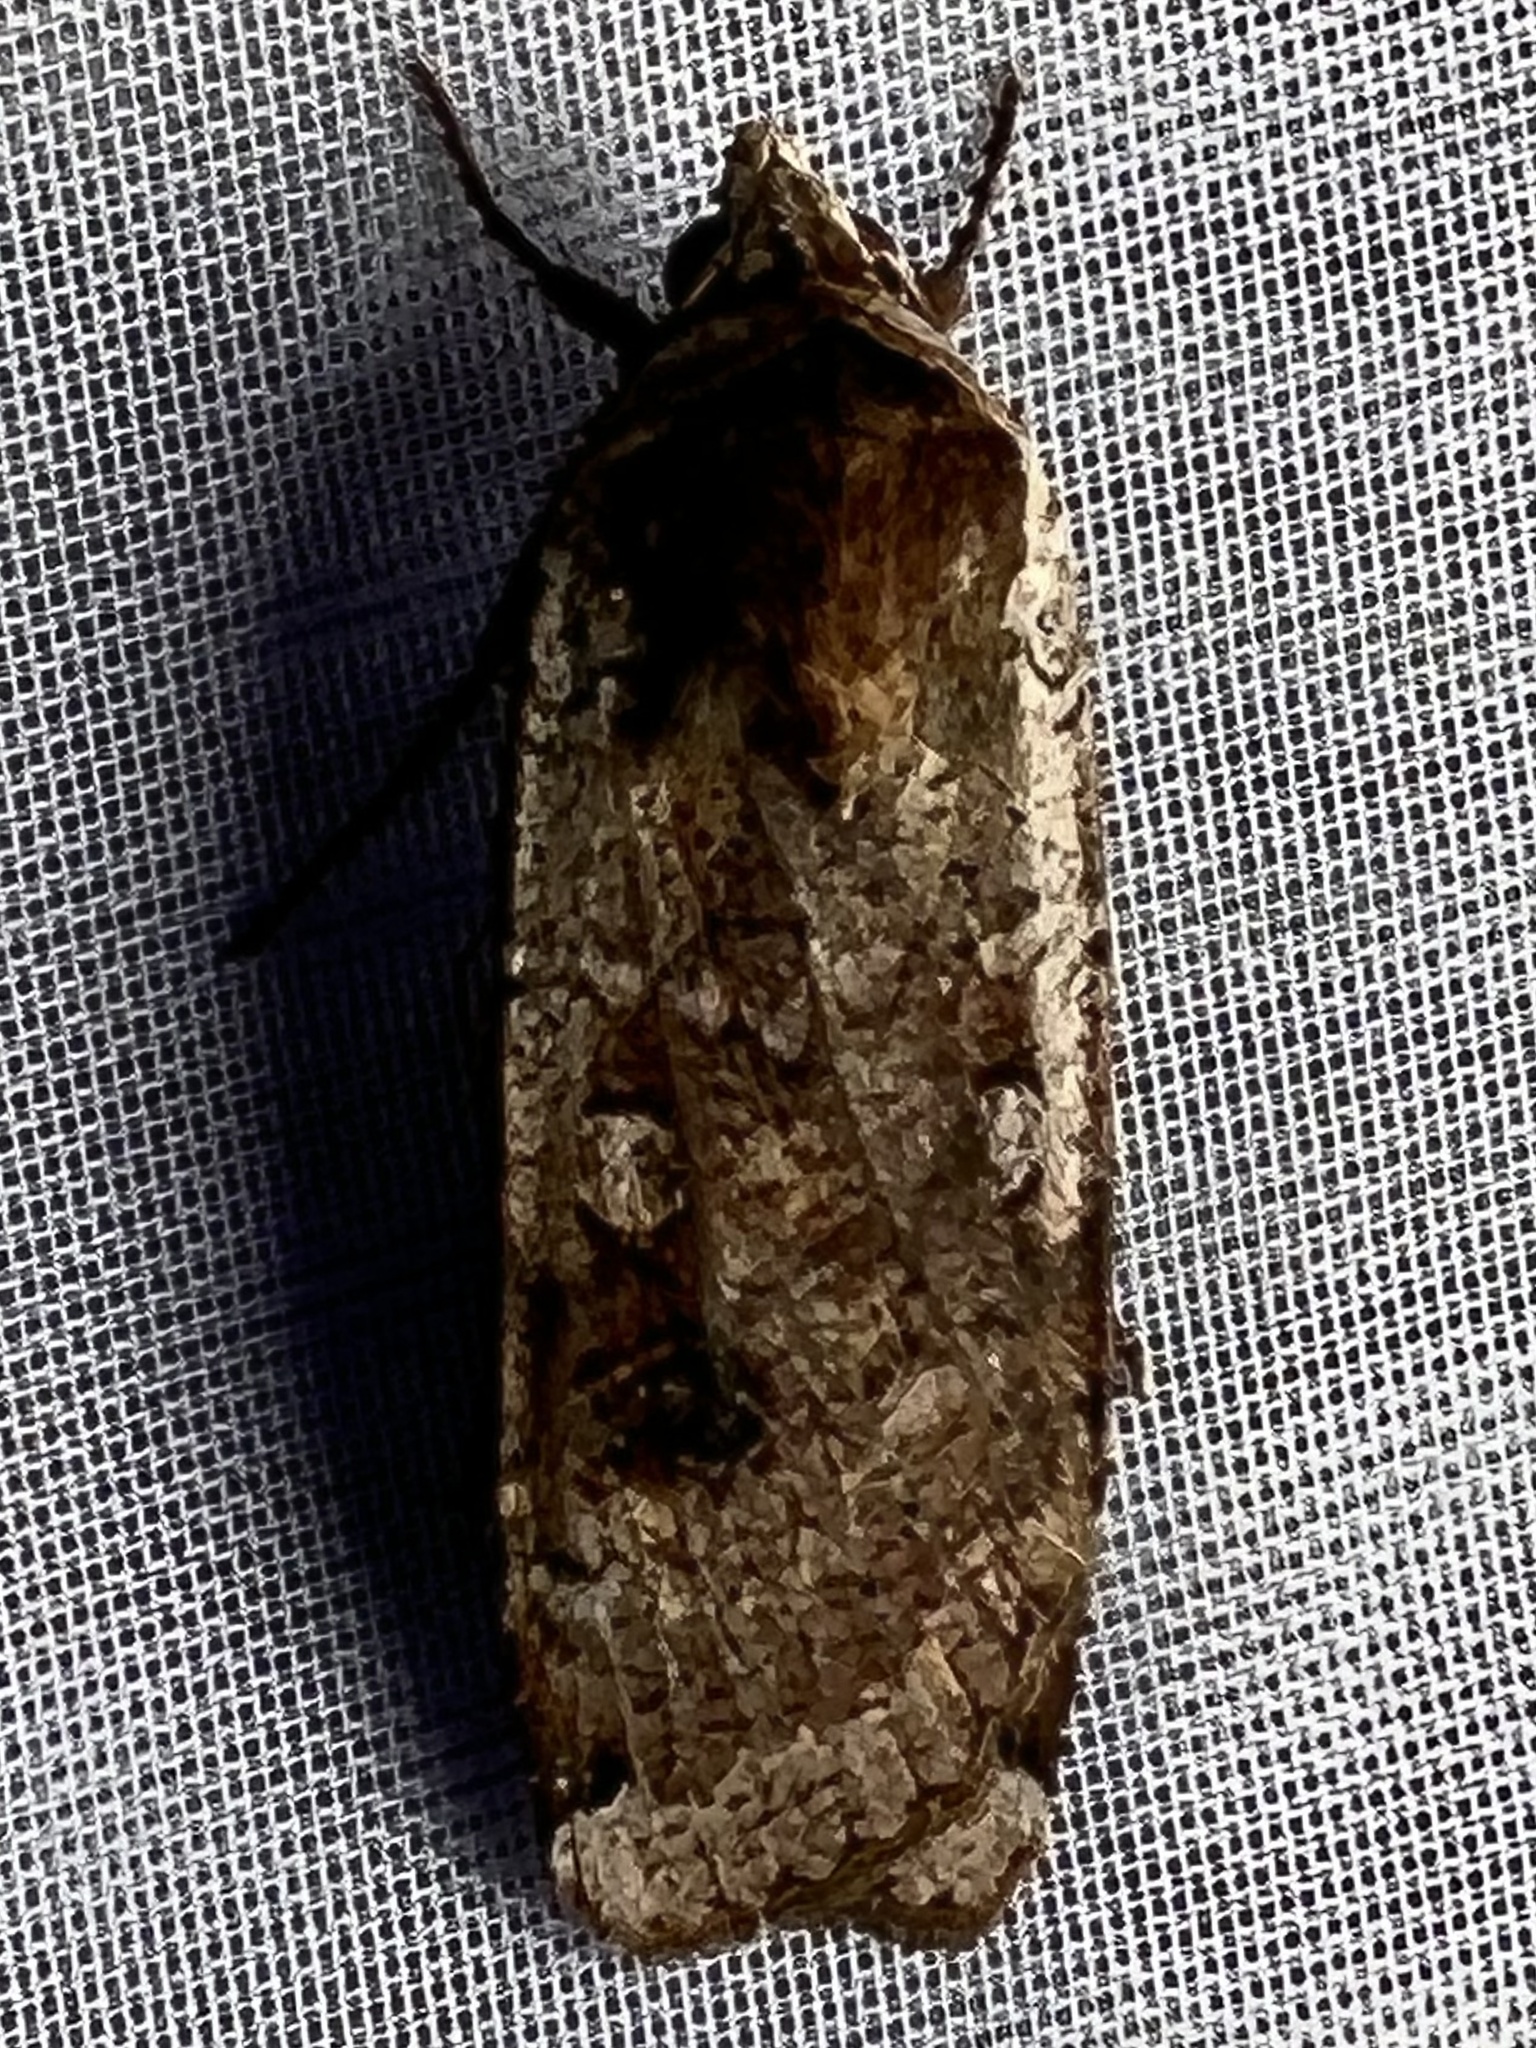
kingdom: Animalia
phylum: Arthropoda
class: Insecta
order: Lepidoptera
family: Noctuidae
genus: Noctua
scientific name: Noctua pronuba
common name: Large yellow underwing
